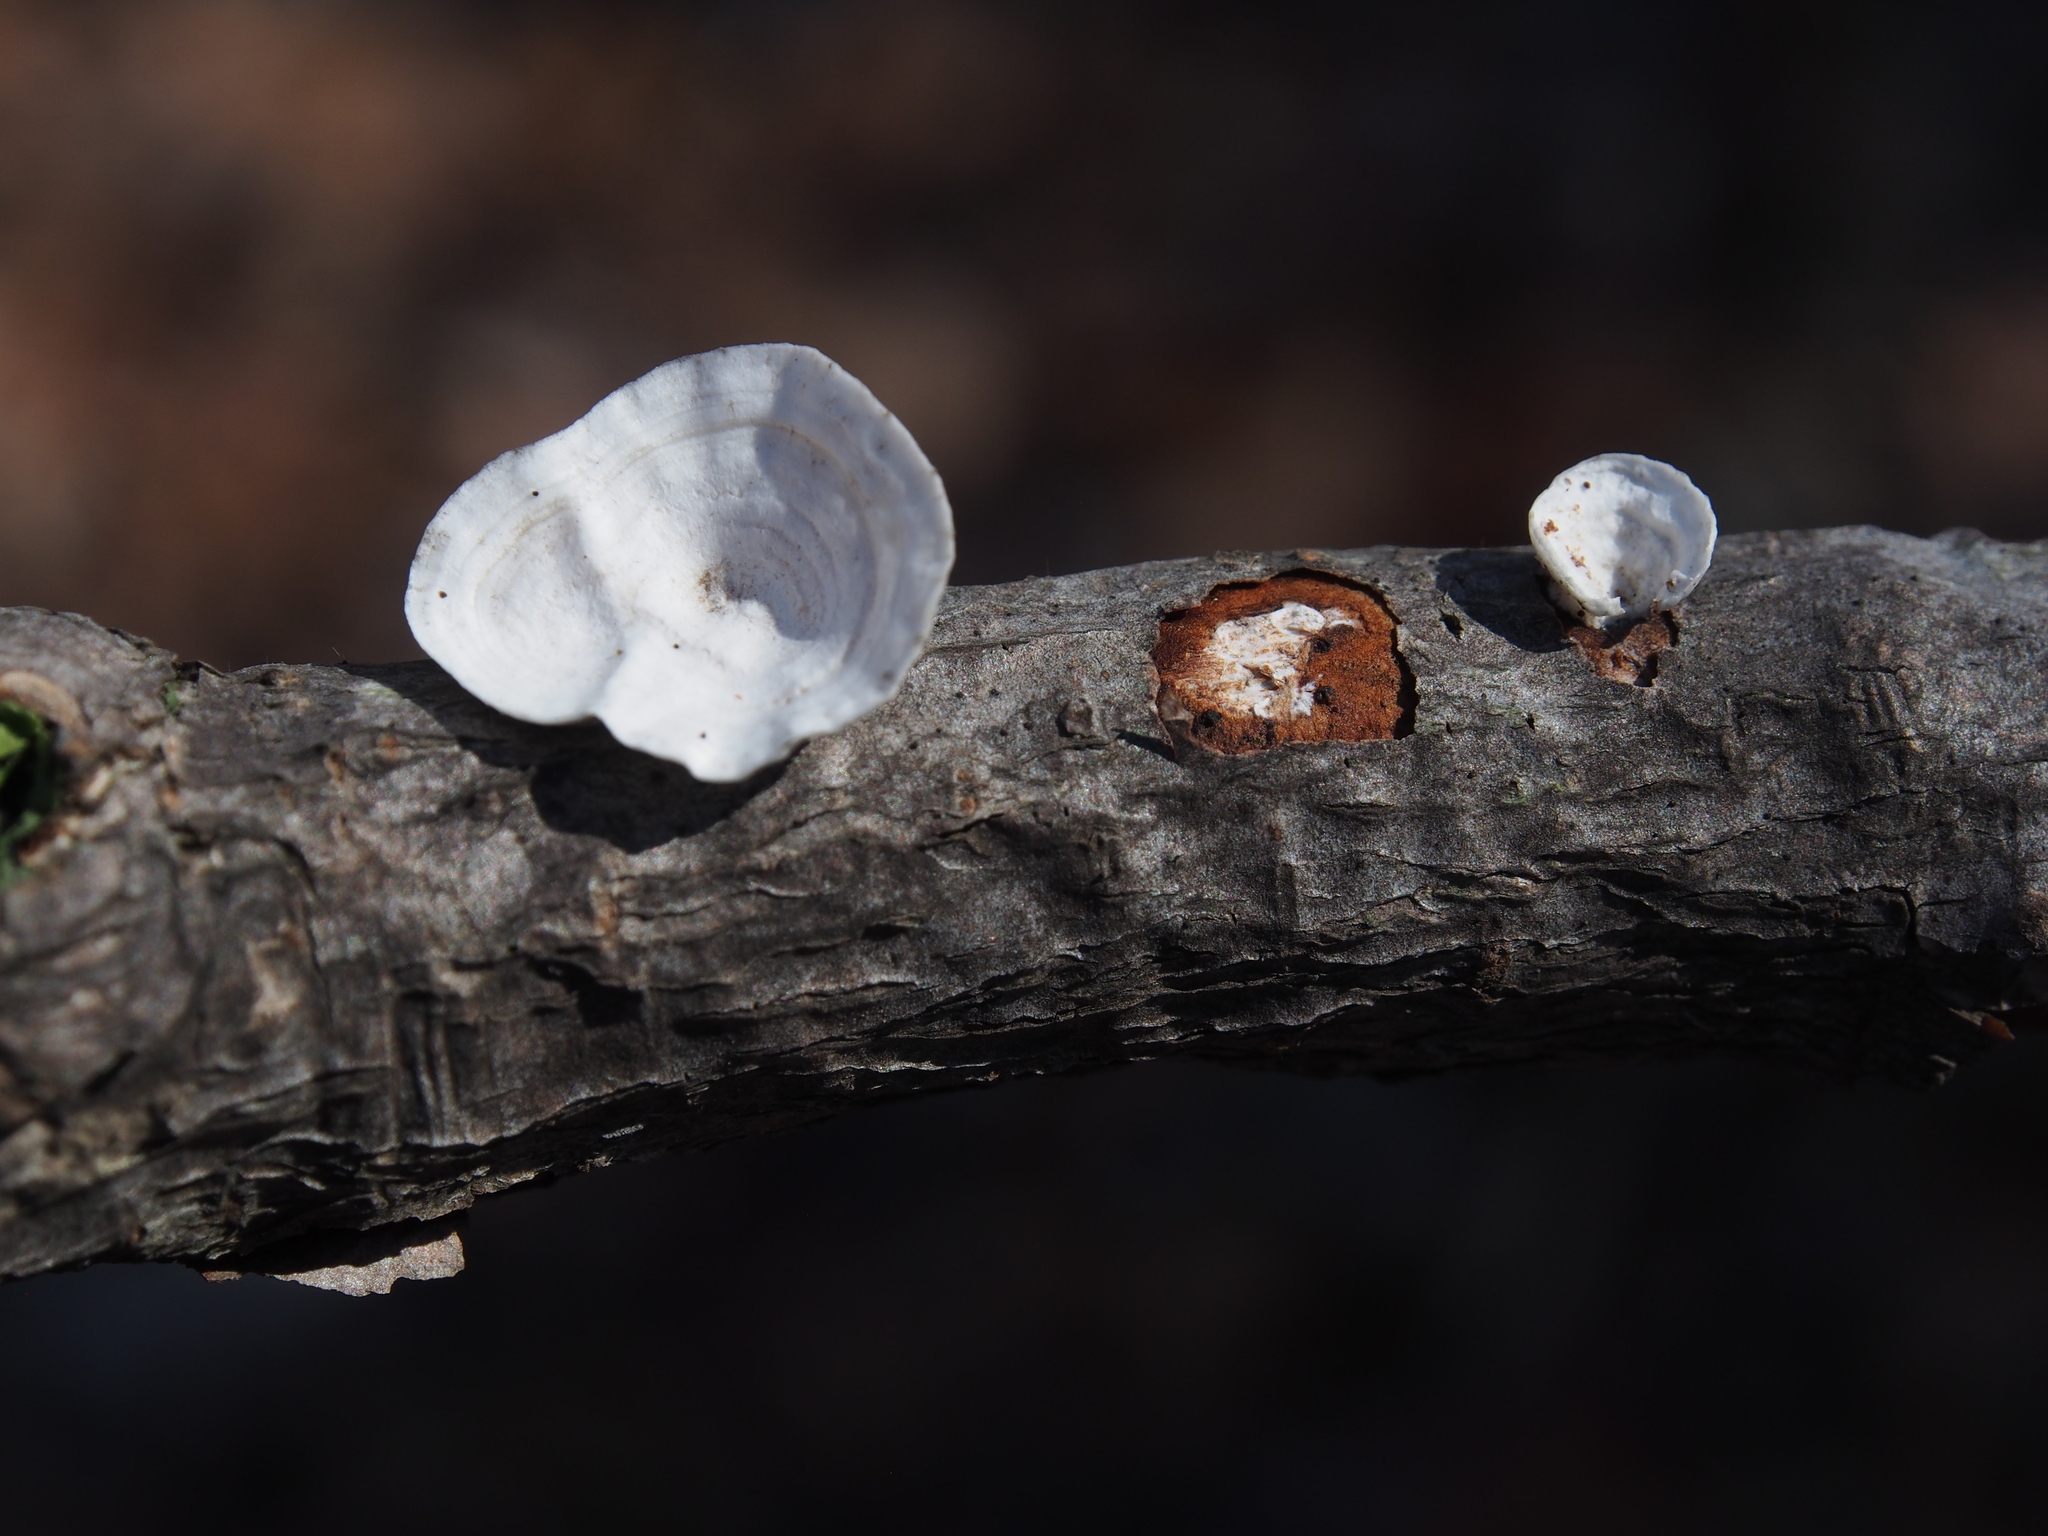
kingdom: Fungi
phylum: Basidiomycota
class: Agaricomycetes
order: Polyporales
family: Polyporaceae
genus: Poronidulus
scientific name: Poronidulus conchifer
